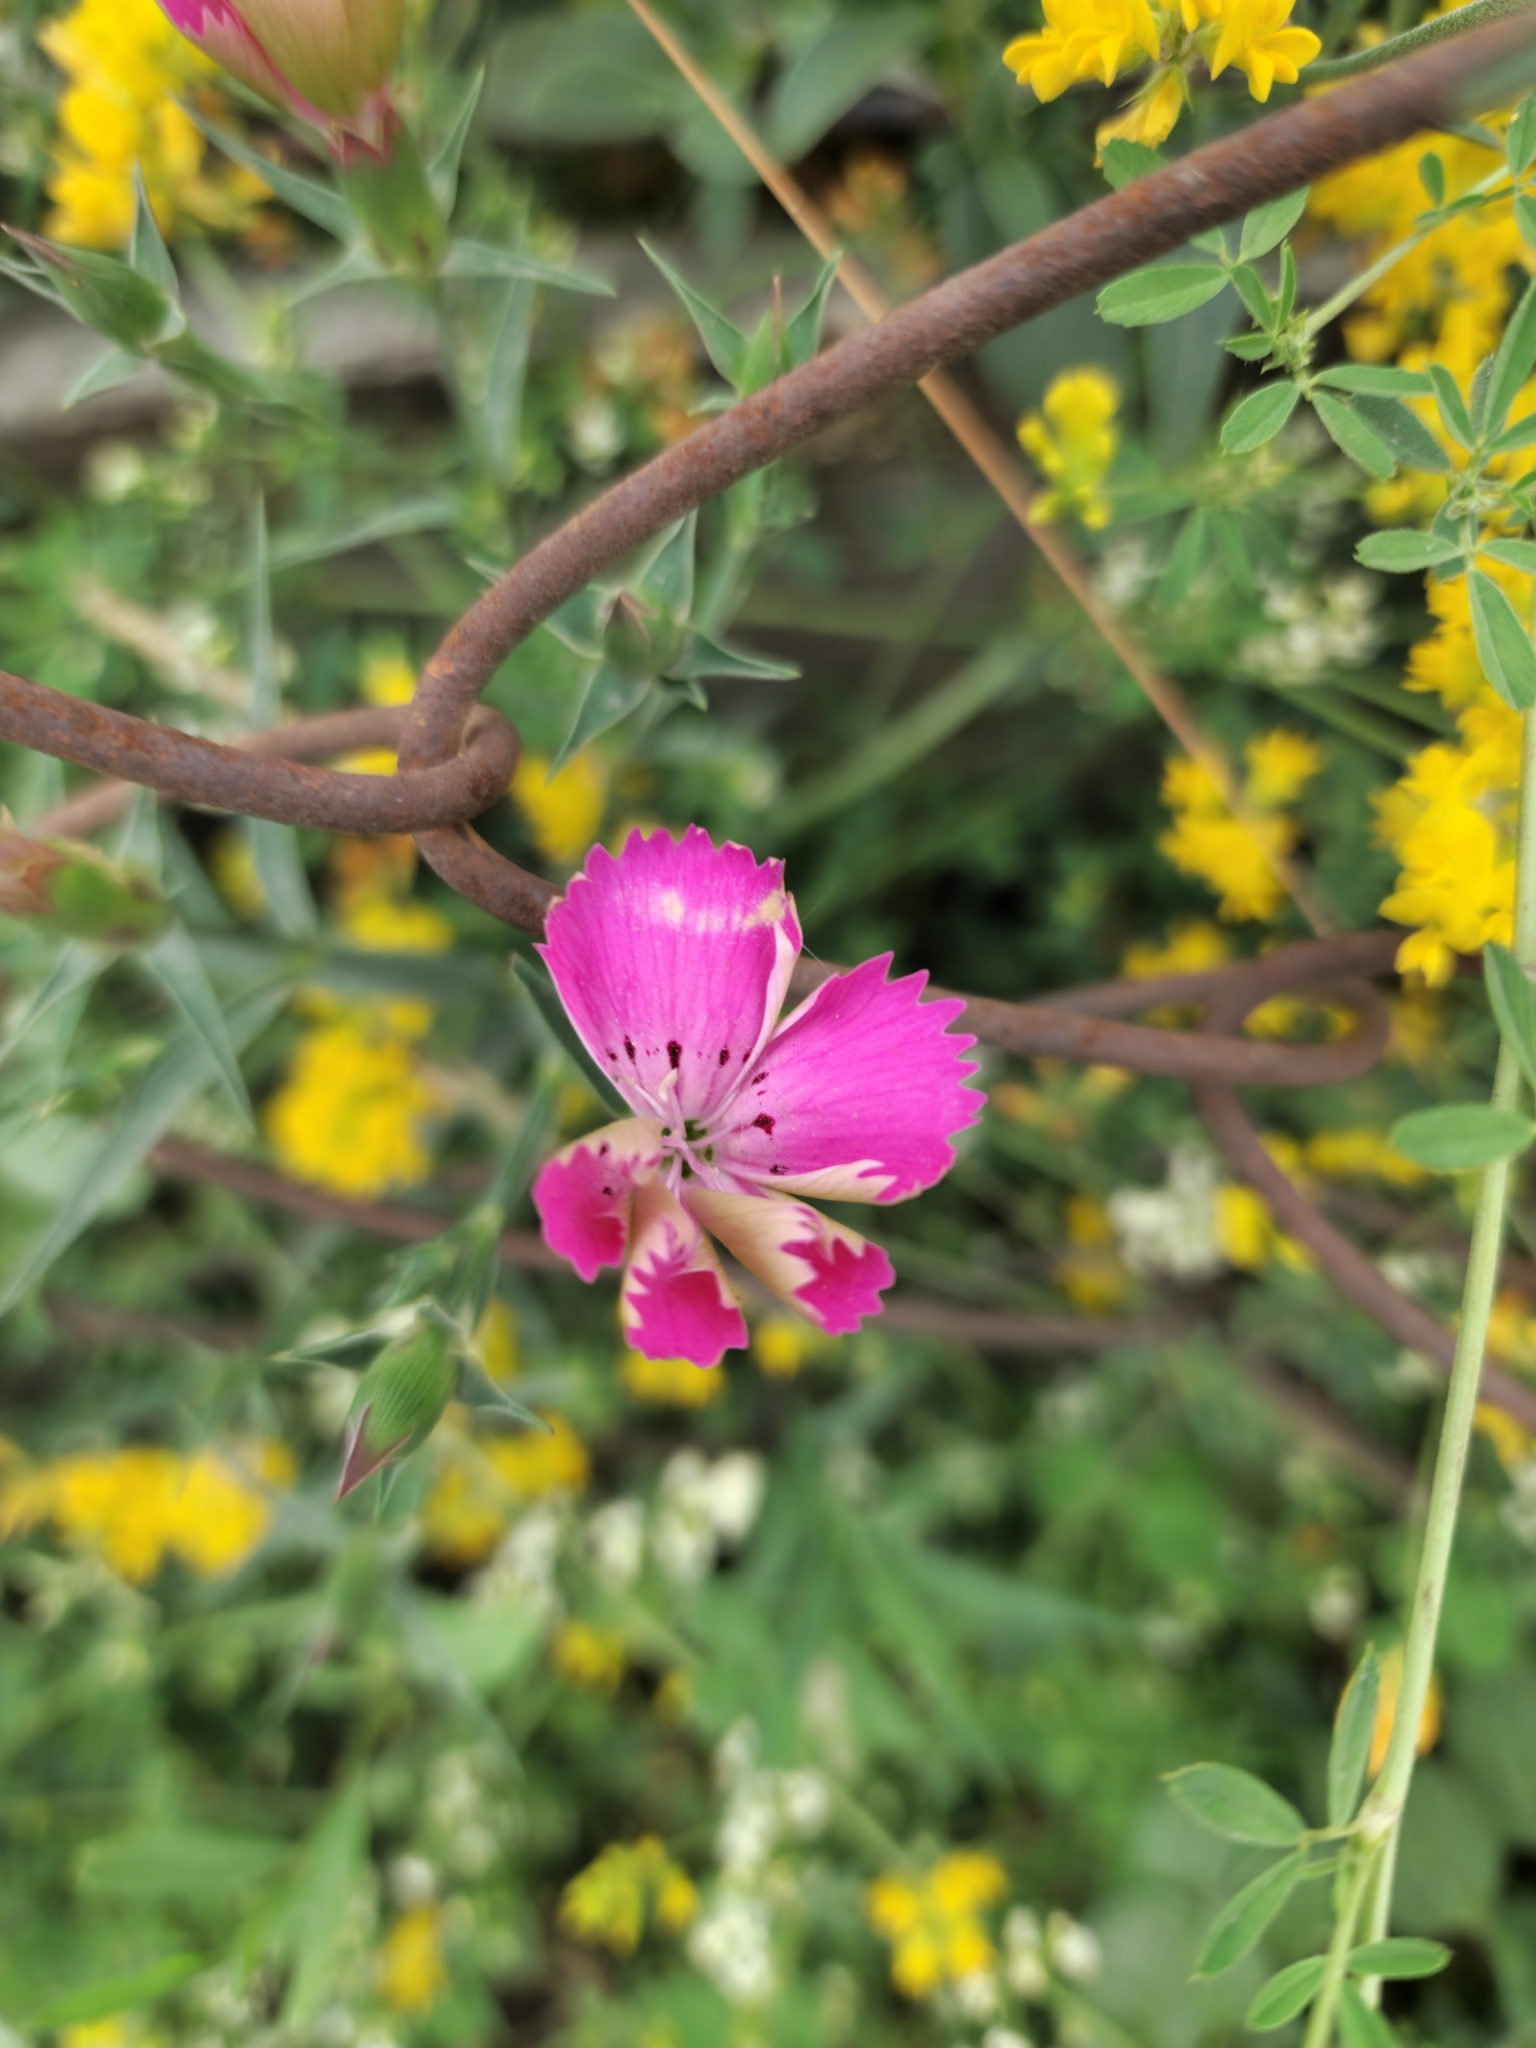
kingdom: Plantae
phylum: Tracheophyta
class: Magnoliopsida
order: Caryophyllales
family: Caryophyllaceae
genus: Dianthus
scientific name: Dianthus caucaseus
